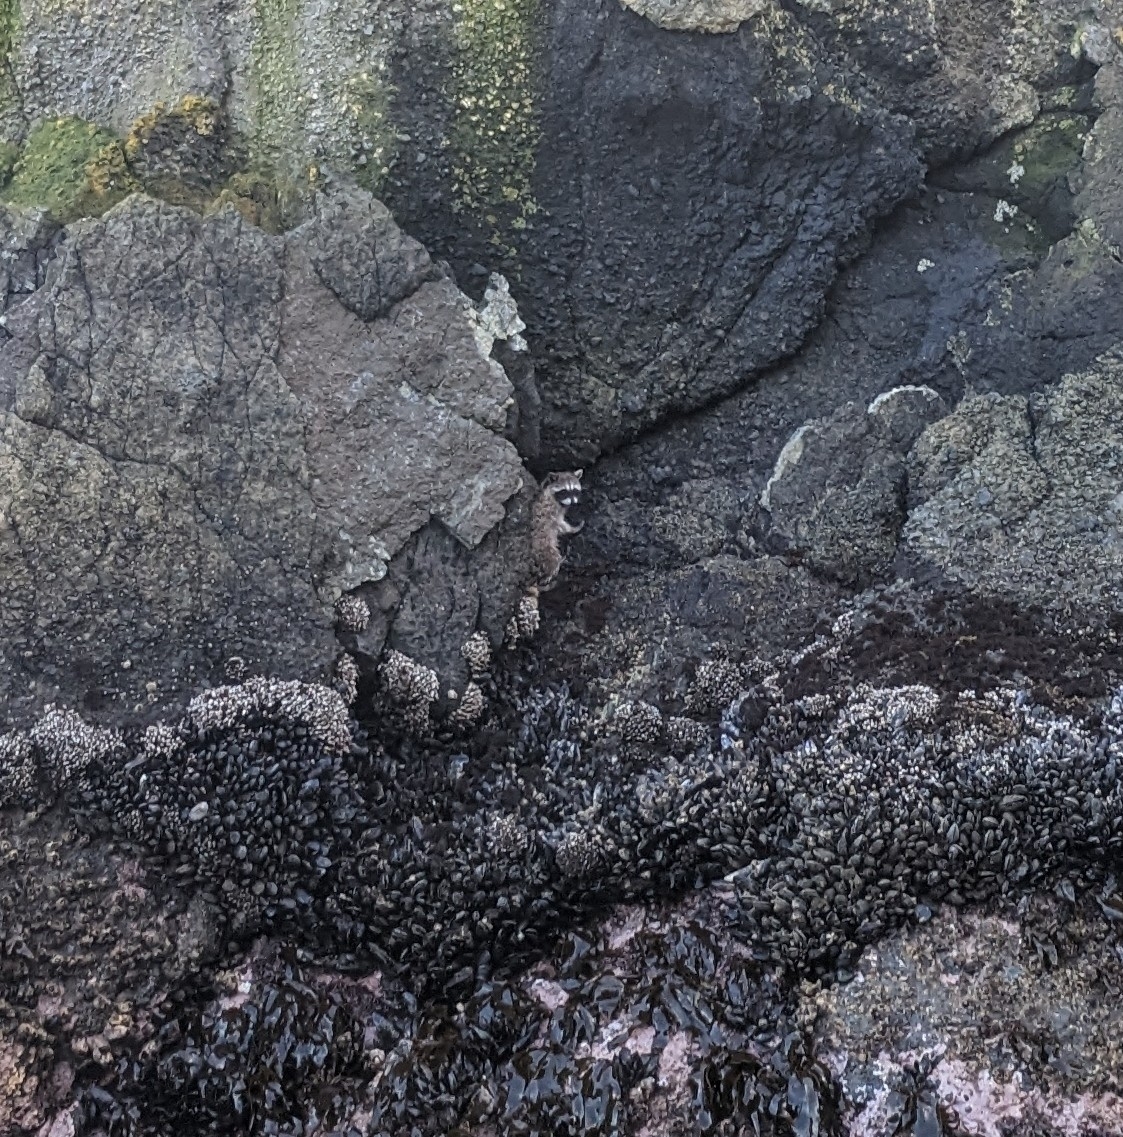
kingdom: Animalia
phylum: Chordata
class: Mammalia
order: Carnivora
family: Procyonidae
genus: Procyon
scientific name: Procyon lotor
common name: Raccoon
